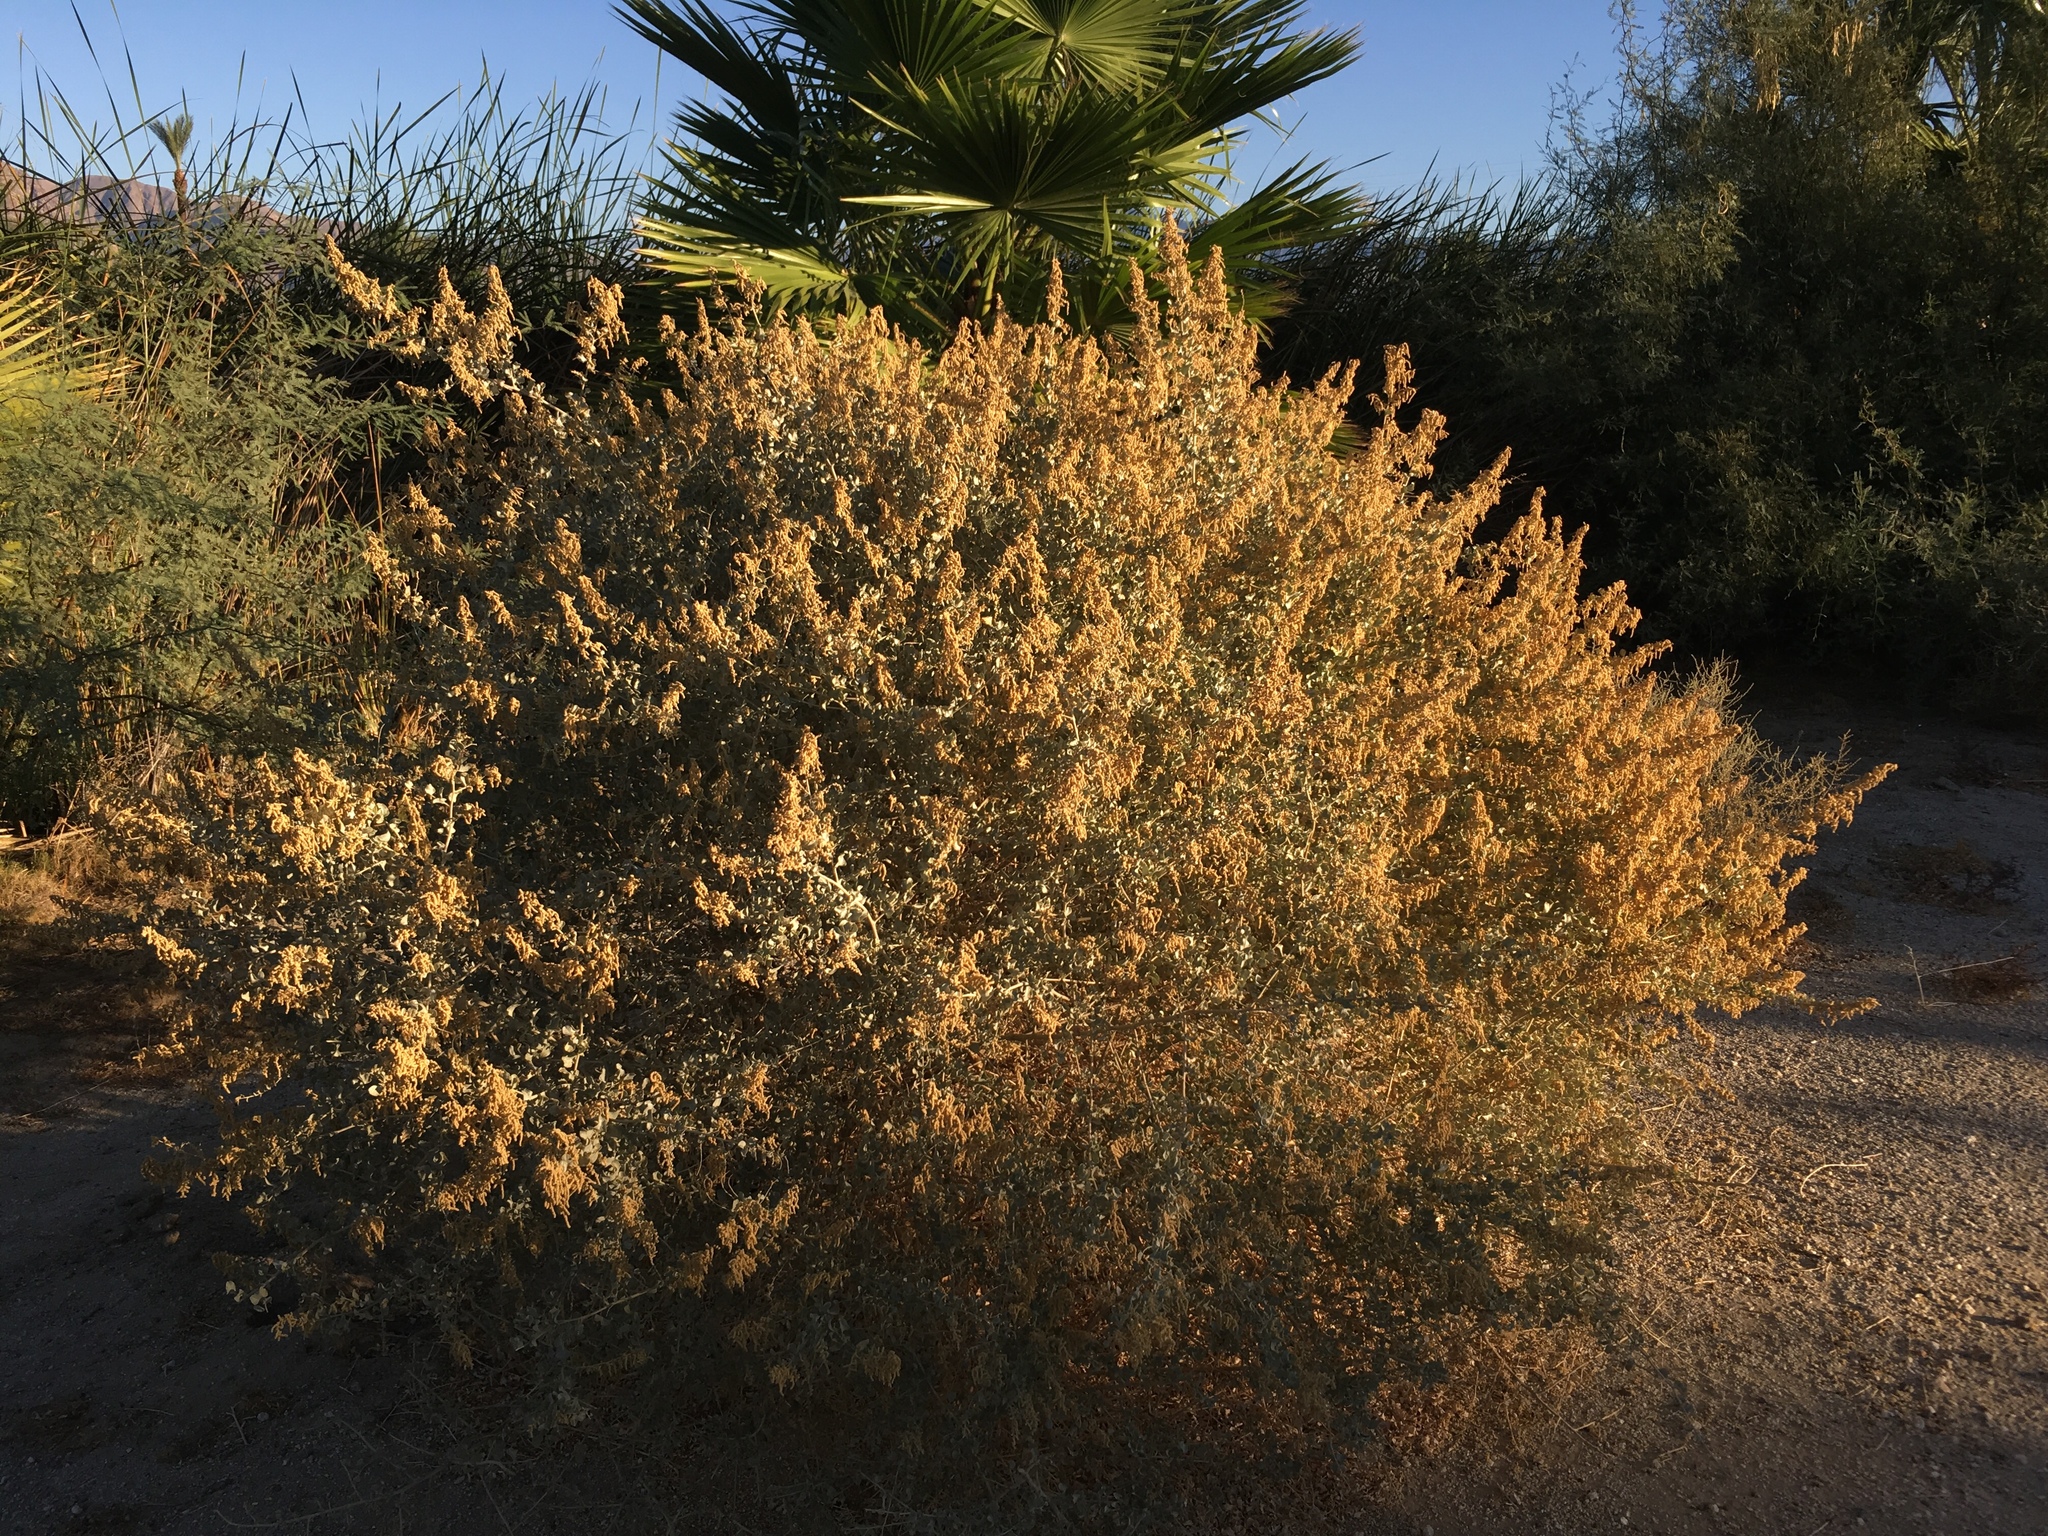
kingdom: Plantae
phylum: Tracheophyta
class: Magnoliopsida
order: Caryophyllales
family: Amaranthaceae
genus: Atriplex
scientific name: Atriplex lentiformis
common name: Big saltbush
